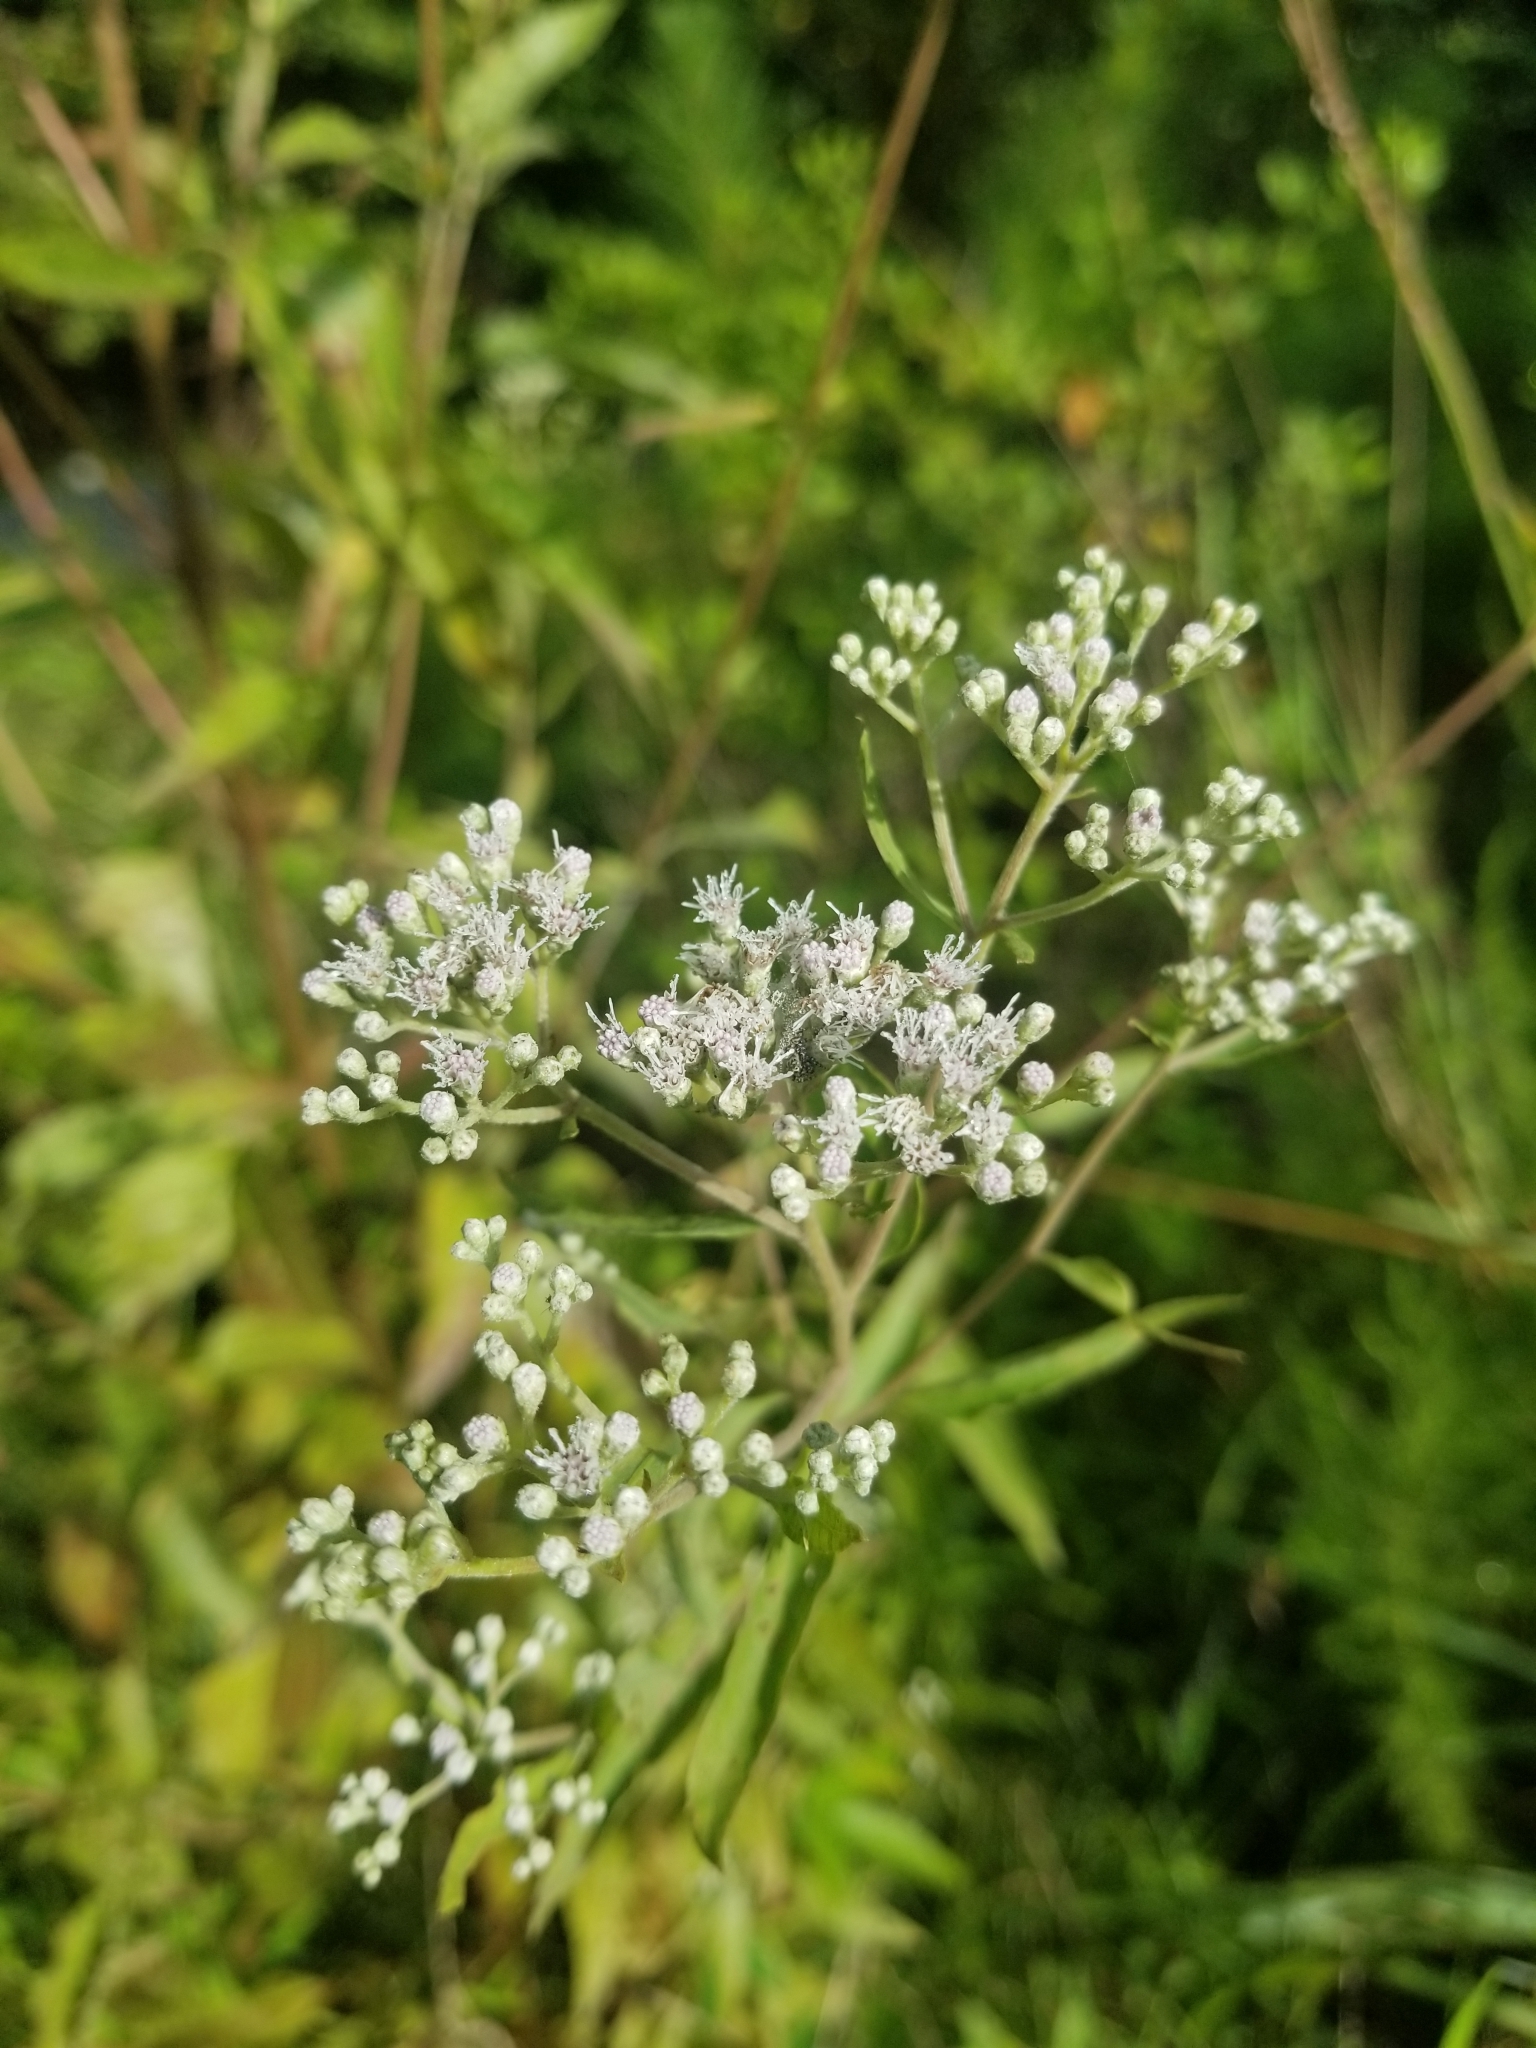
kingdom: Plantae
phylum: Tracheophyta
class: Magnoliopsida
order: Asterales
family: Asteraceae
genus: Eupatorium
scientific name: Eupatorium serotinum
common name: Late boneset
